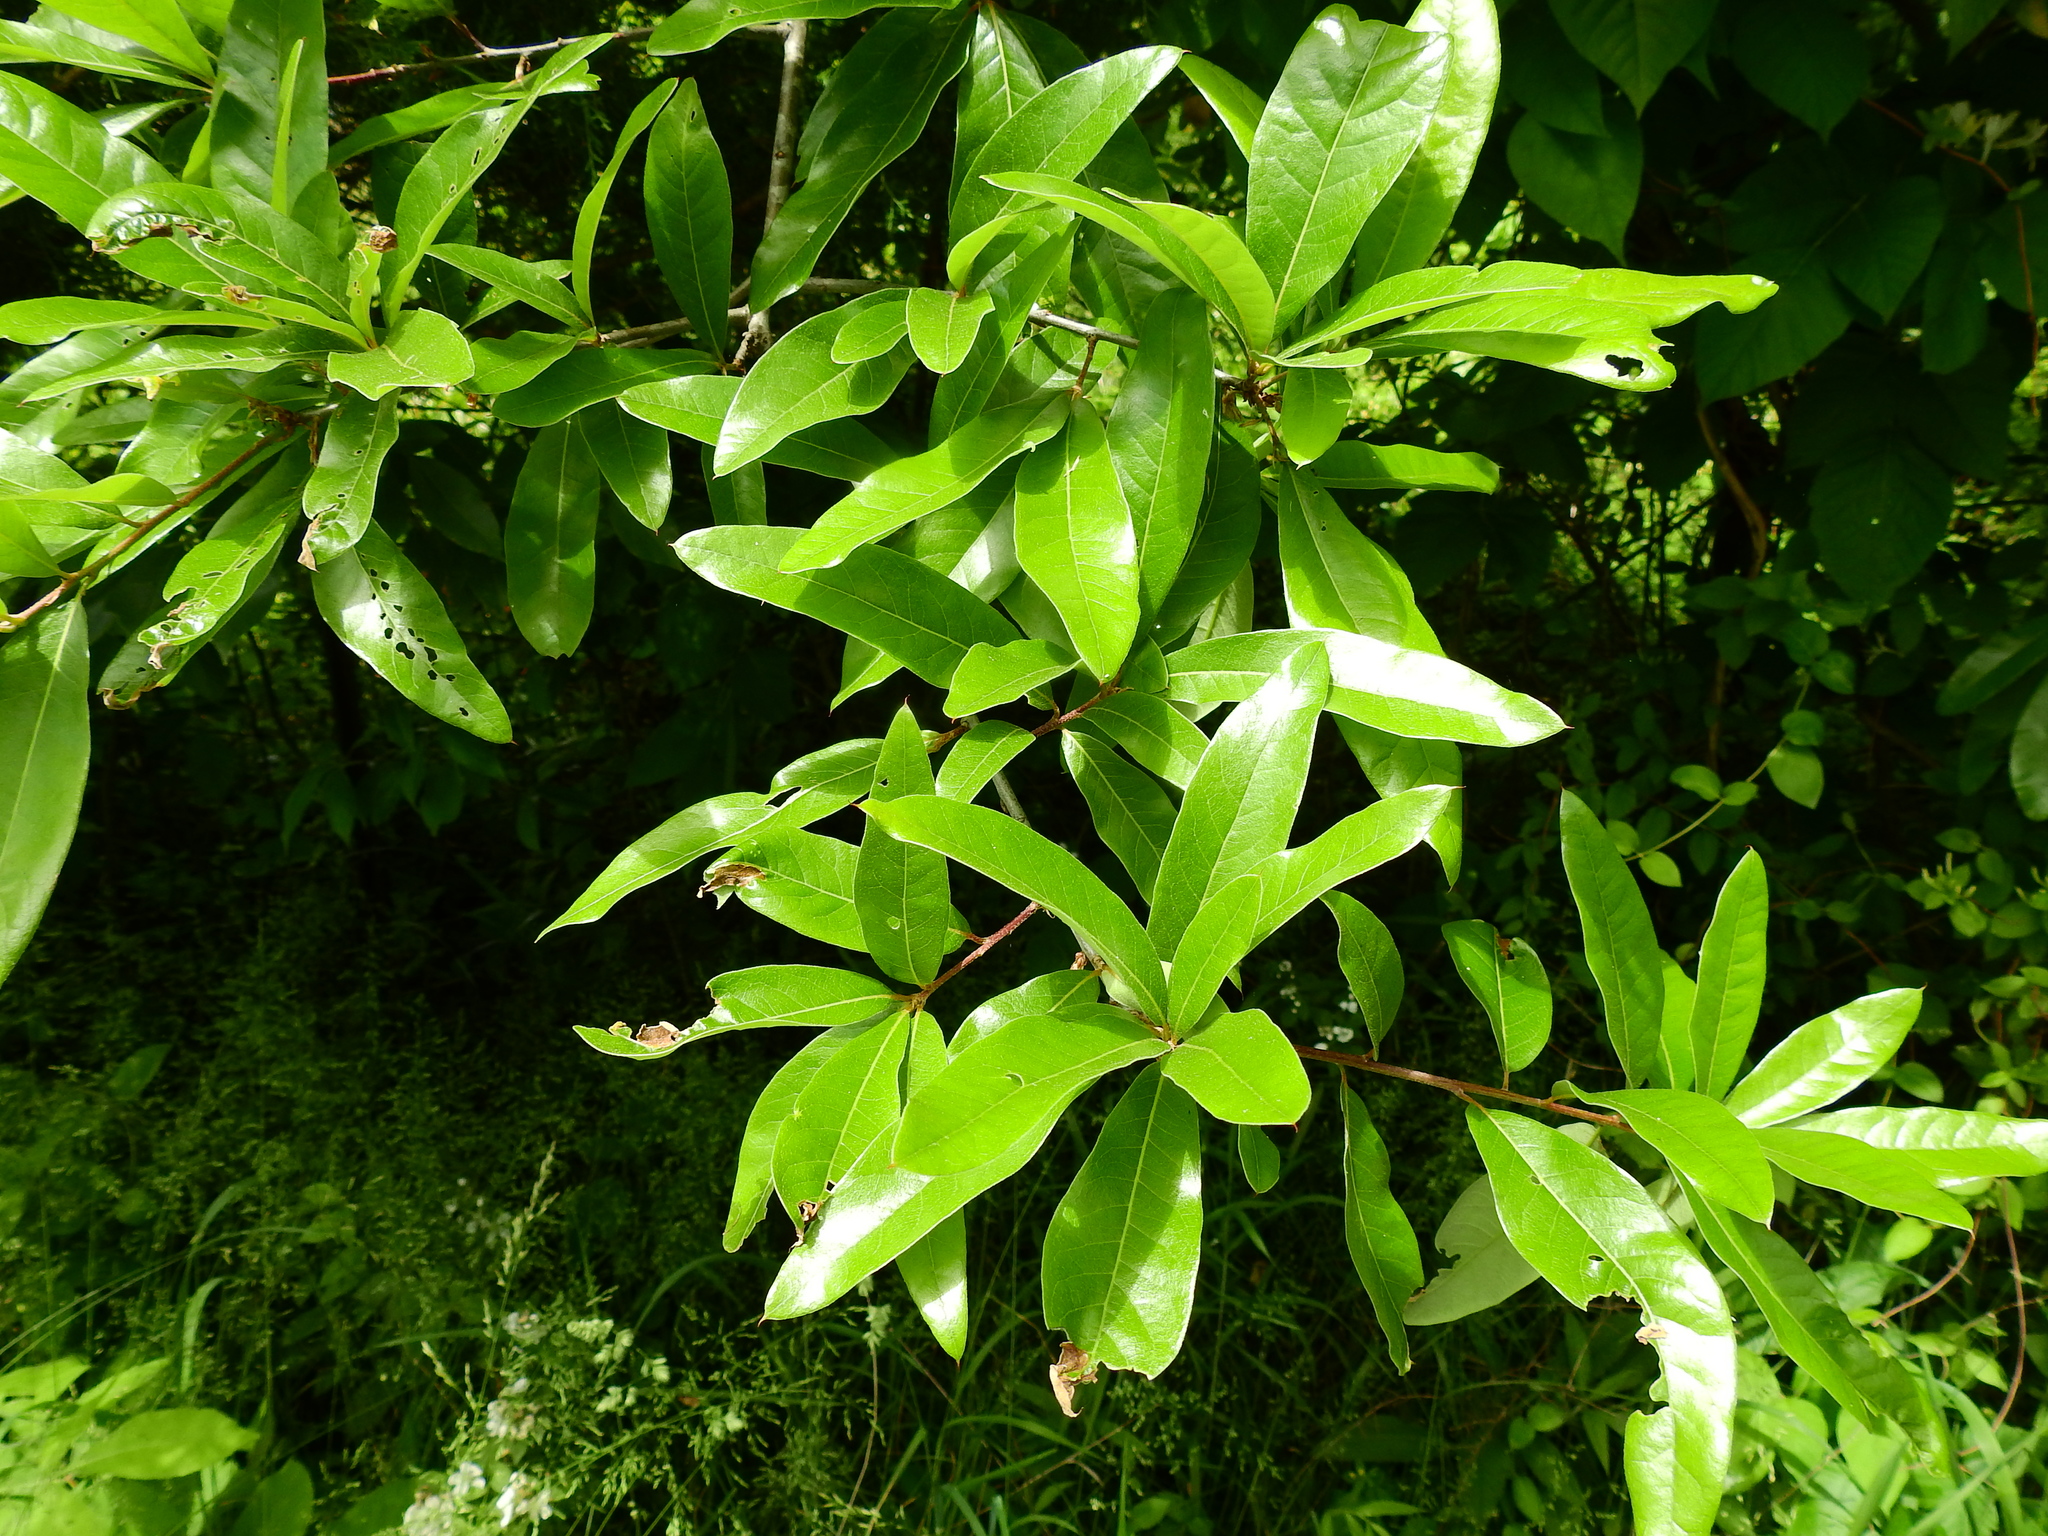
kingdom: Plantae
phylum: Tracheophyta
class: Magnoliopsida
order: Fagales
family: Fagaceae
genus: Quercus
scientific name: Quercus imbricaria
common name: Shingle oak
